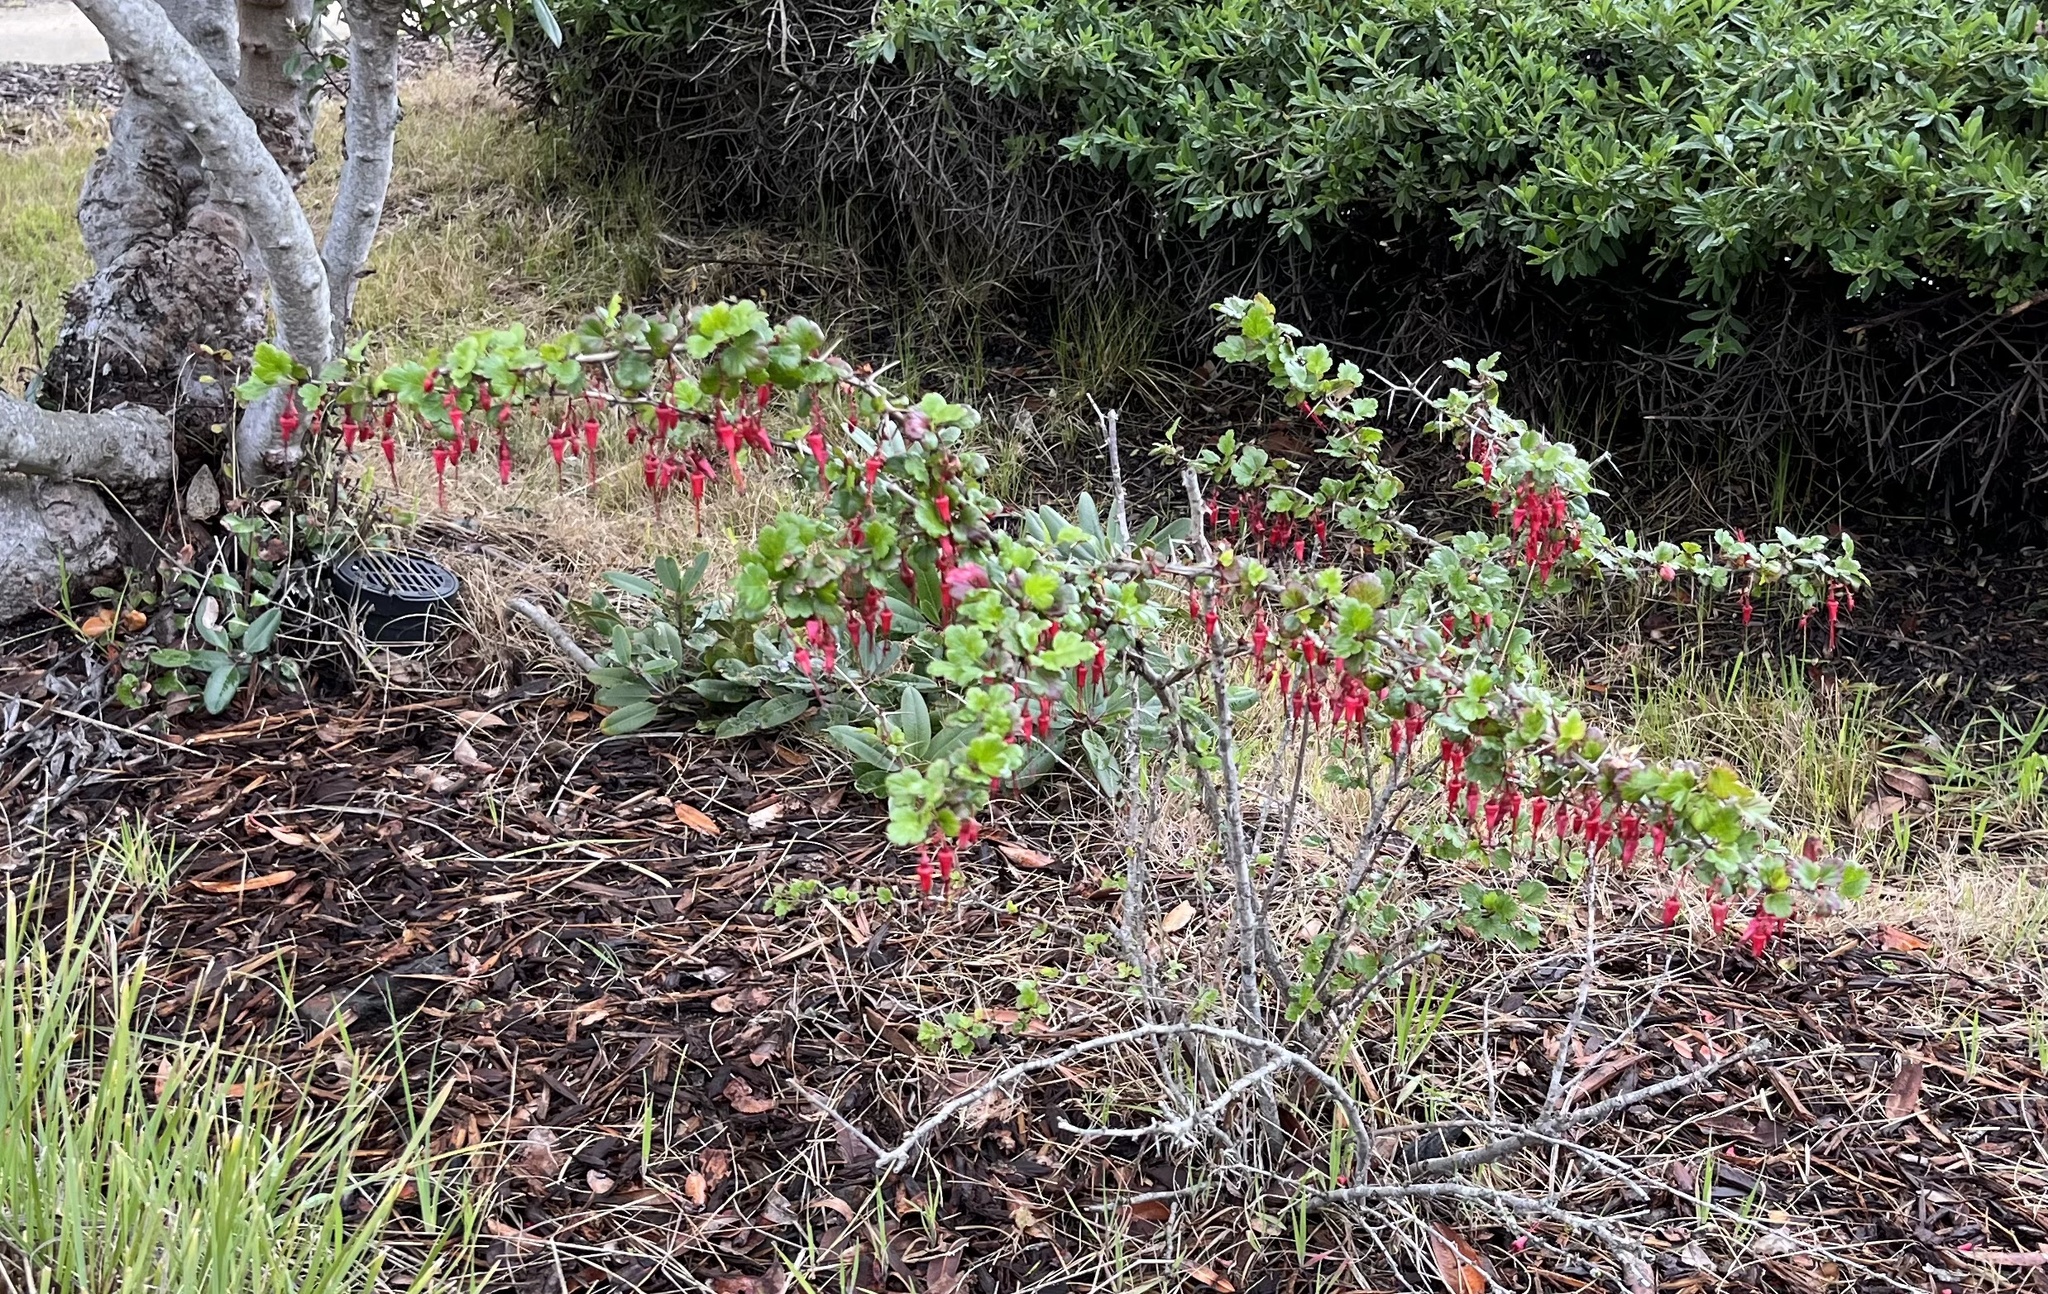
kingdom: Plantae
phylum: Tracheophyta
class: Magnoliopsida
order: Saxifragales
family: Grossulariaceae
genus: Ribes
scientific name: Ribes speciosum
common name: Fuchsia-flower gooseberry
